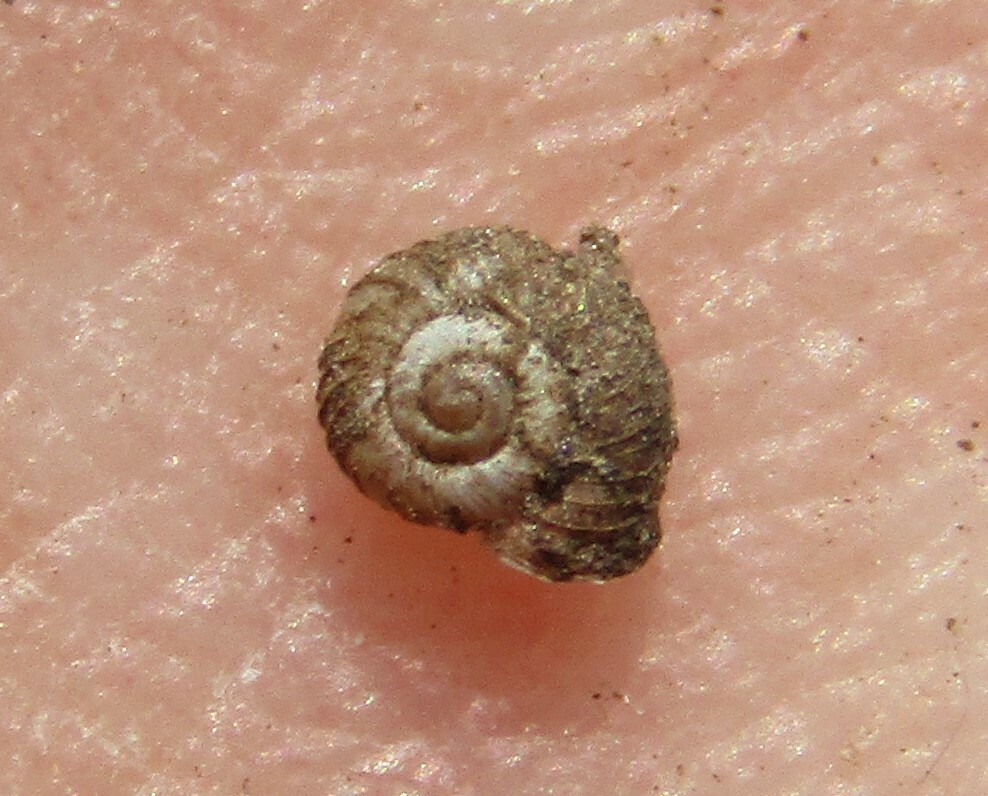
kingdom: Animalia
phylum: Mollusca
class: Gastropoda
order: Stylommatophora
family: Valloniidae
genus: Vallonia
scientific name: Vallonia costata
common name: Ribbed grass snail
